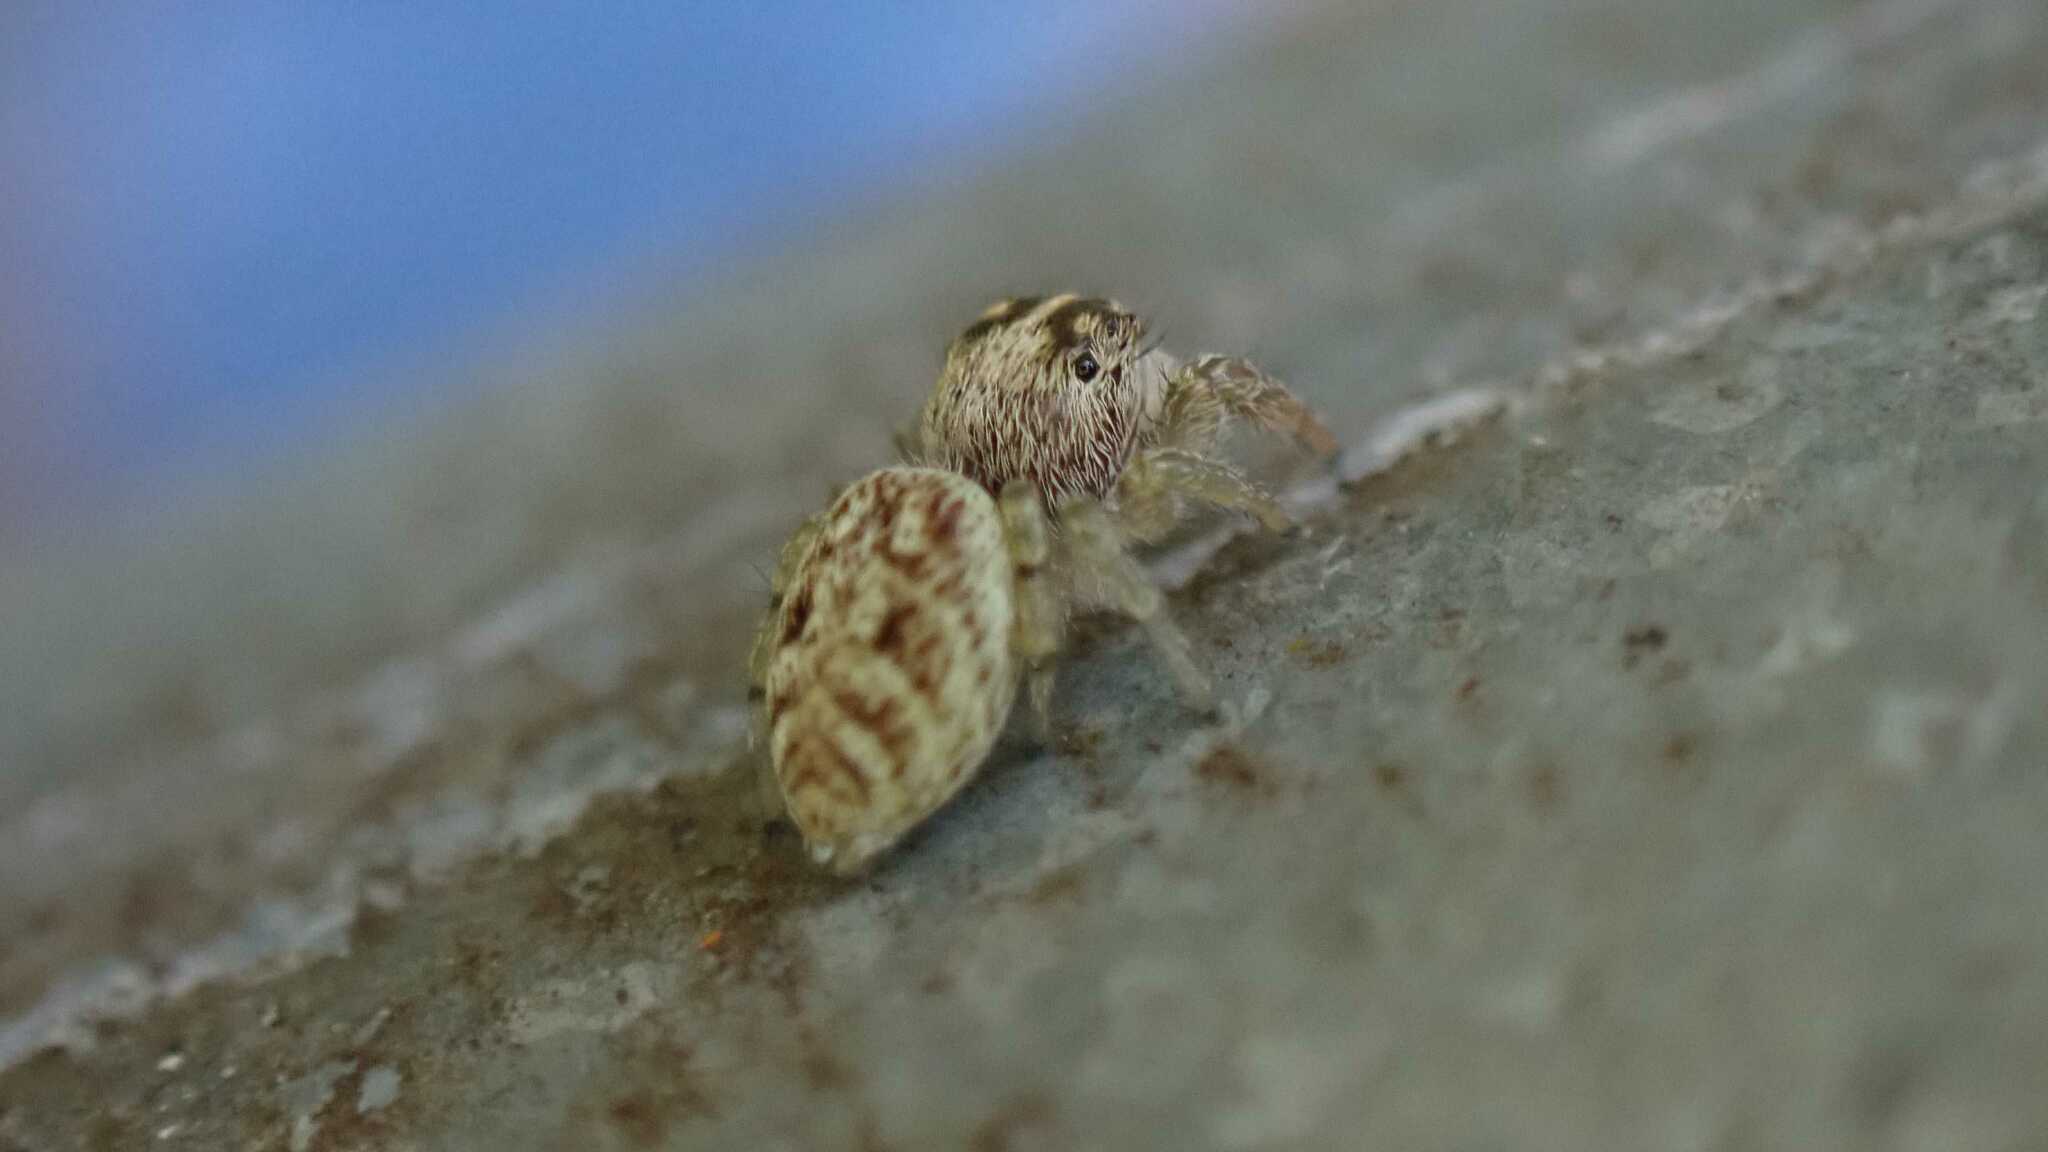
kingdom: Animalia
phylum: Arthropoda
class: Arachnida
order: Araneae
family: Salticidae
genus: Macaroeris
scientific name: Macaroeris nidicolens
